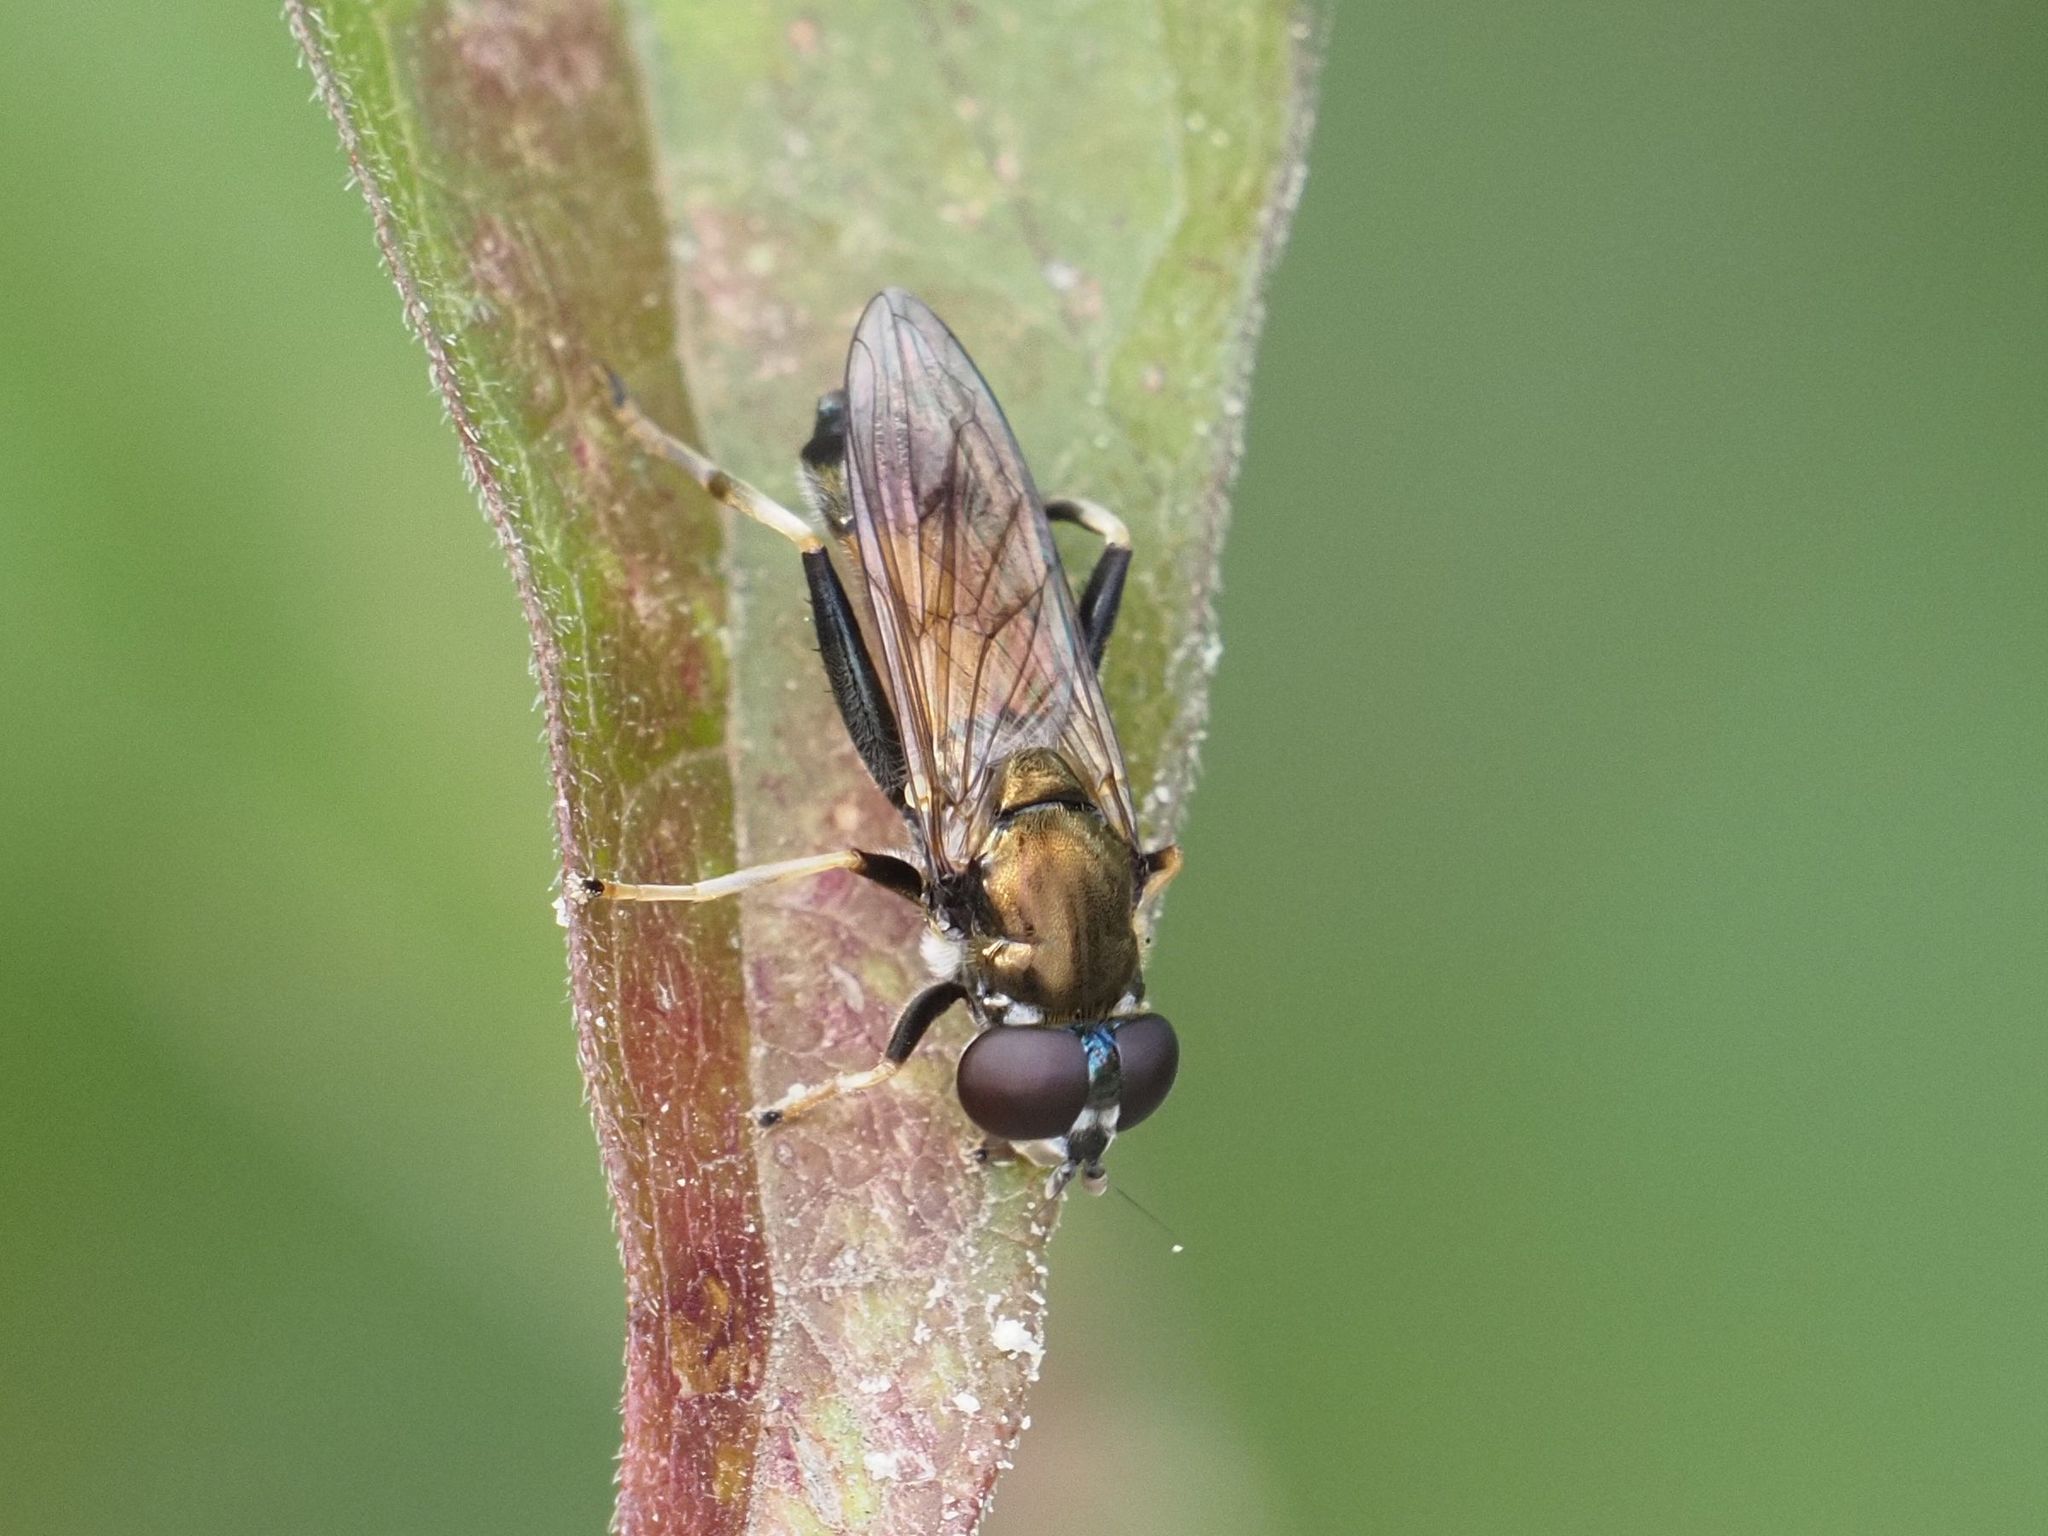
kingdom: Animalia
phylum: Arthropoda
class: Insecta
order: Diptera
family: Syrphidae
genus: Xylota
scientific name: Xylota segnis
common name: Brown-toed forest fly
